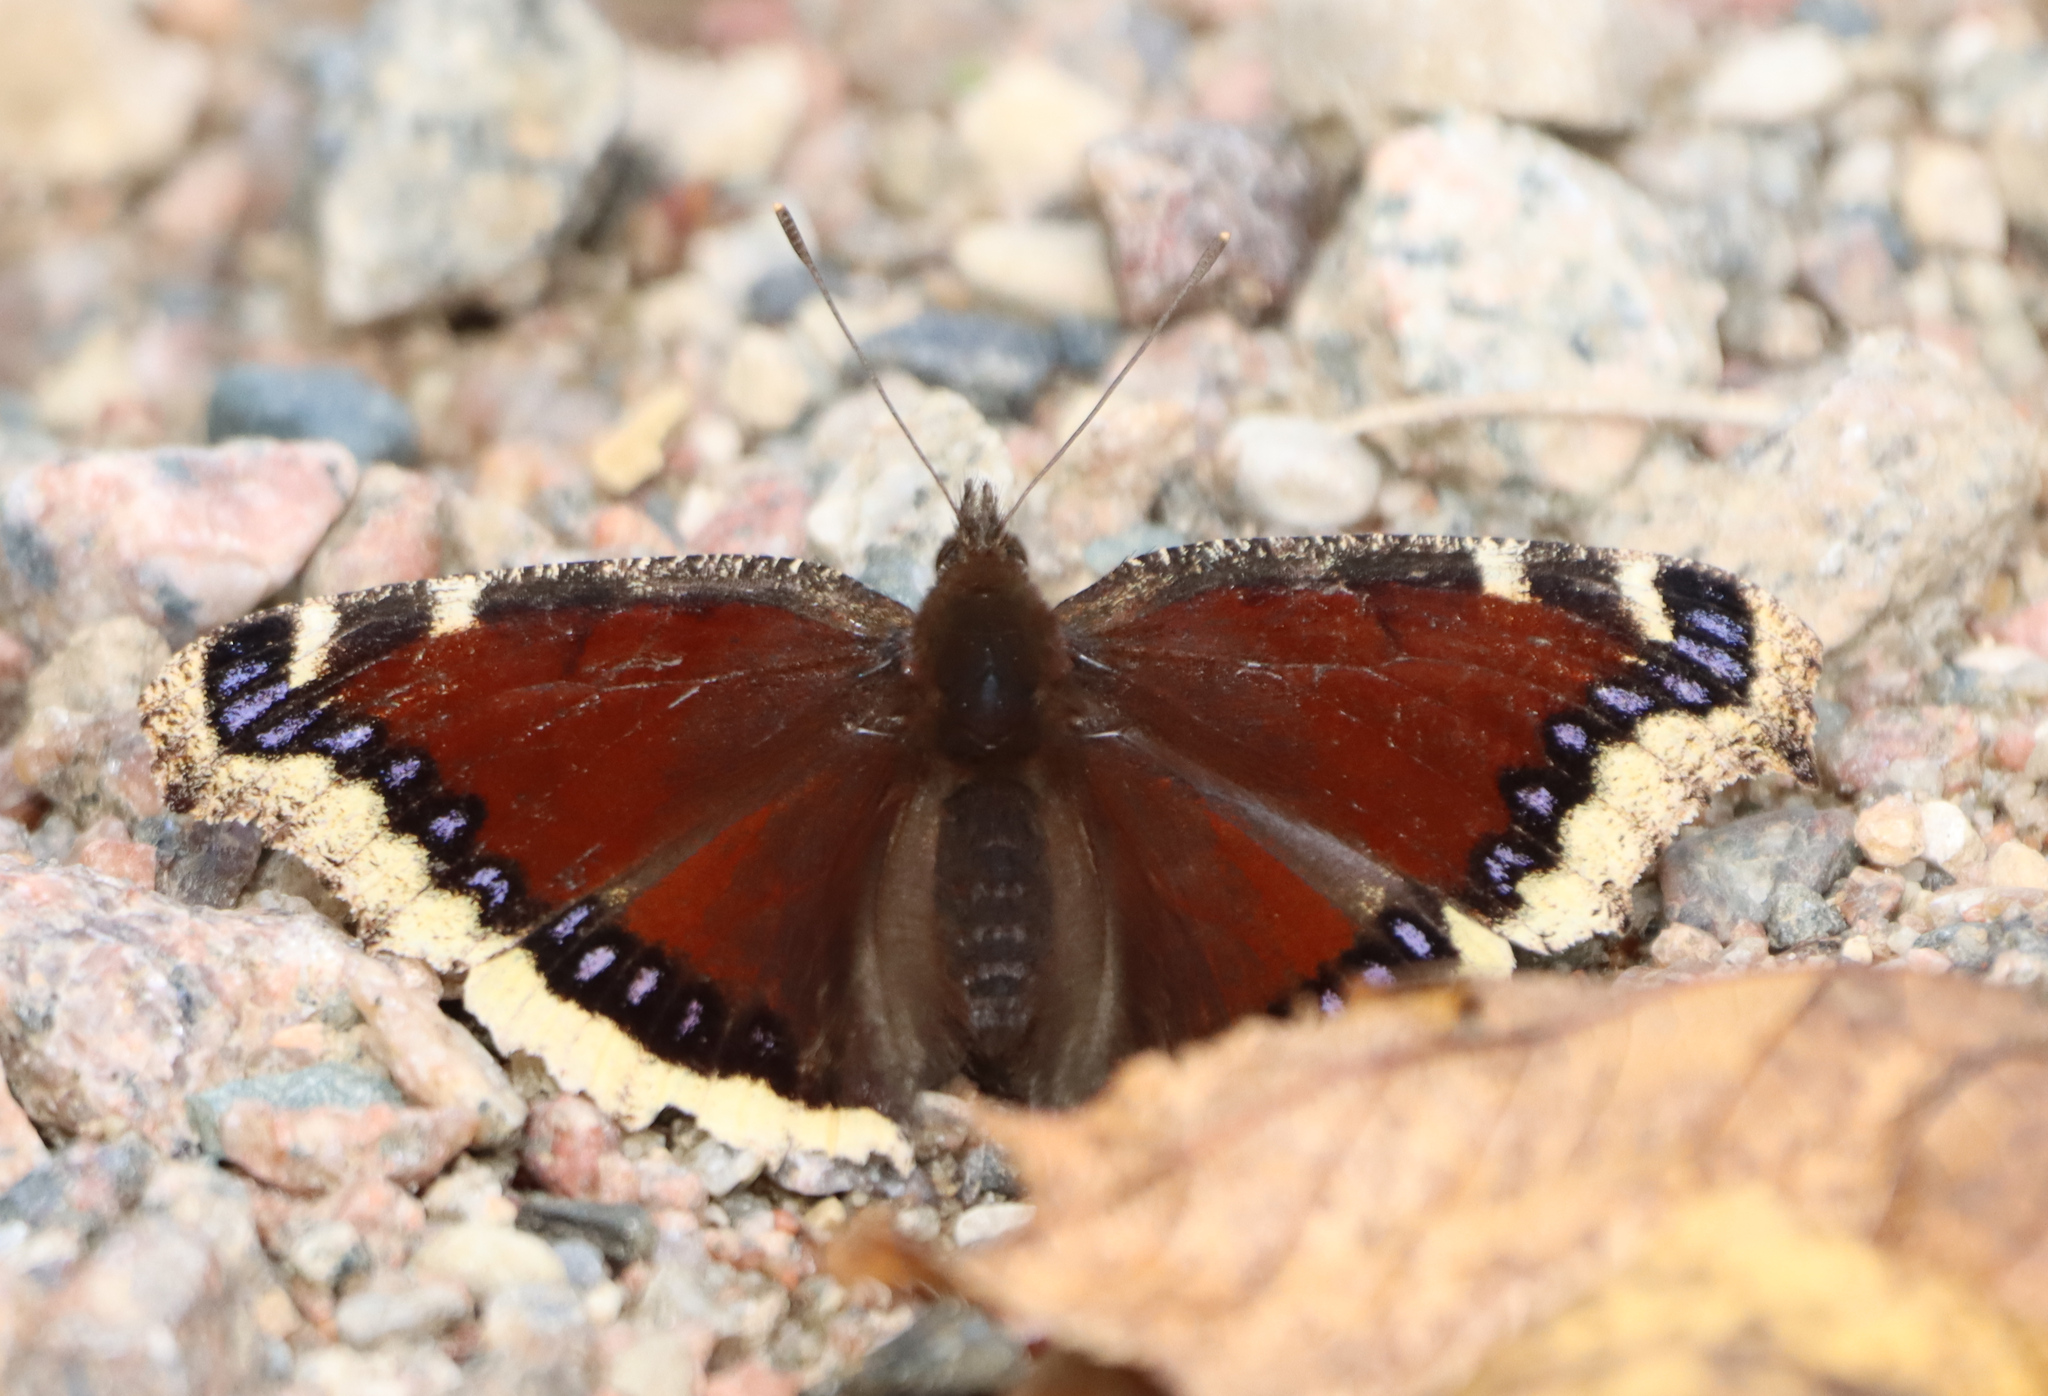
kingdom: Animalia
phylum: Arthropoda
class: Insecta
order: Lepidoptera
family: Nymphalidae
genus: Nymphalis
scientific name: Nymphalis antiopa
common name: Camberwell beauty
